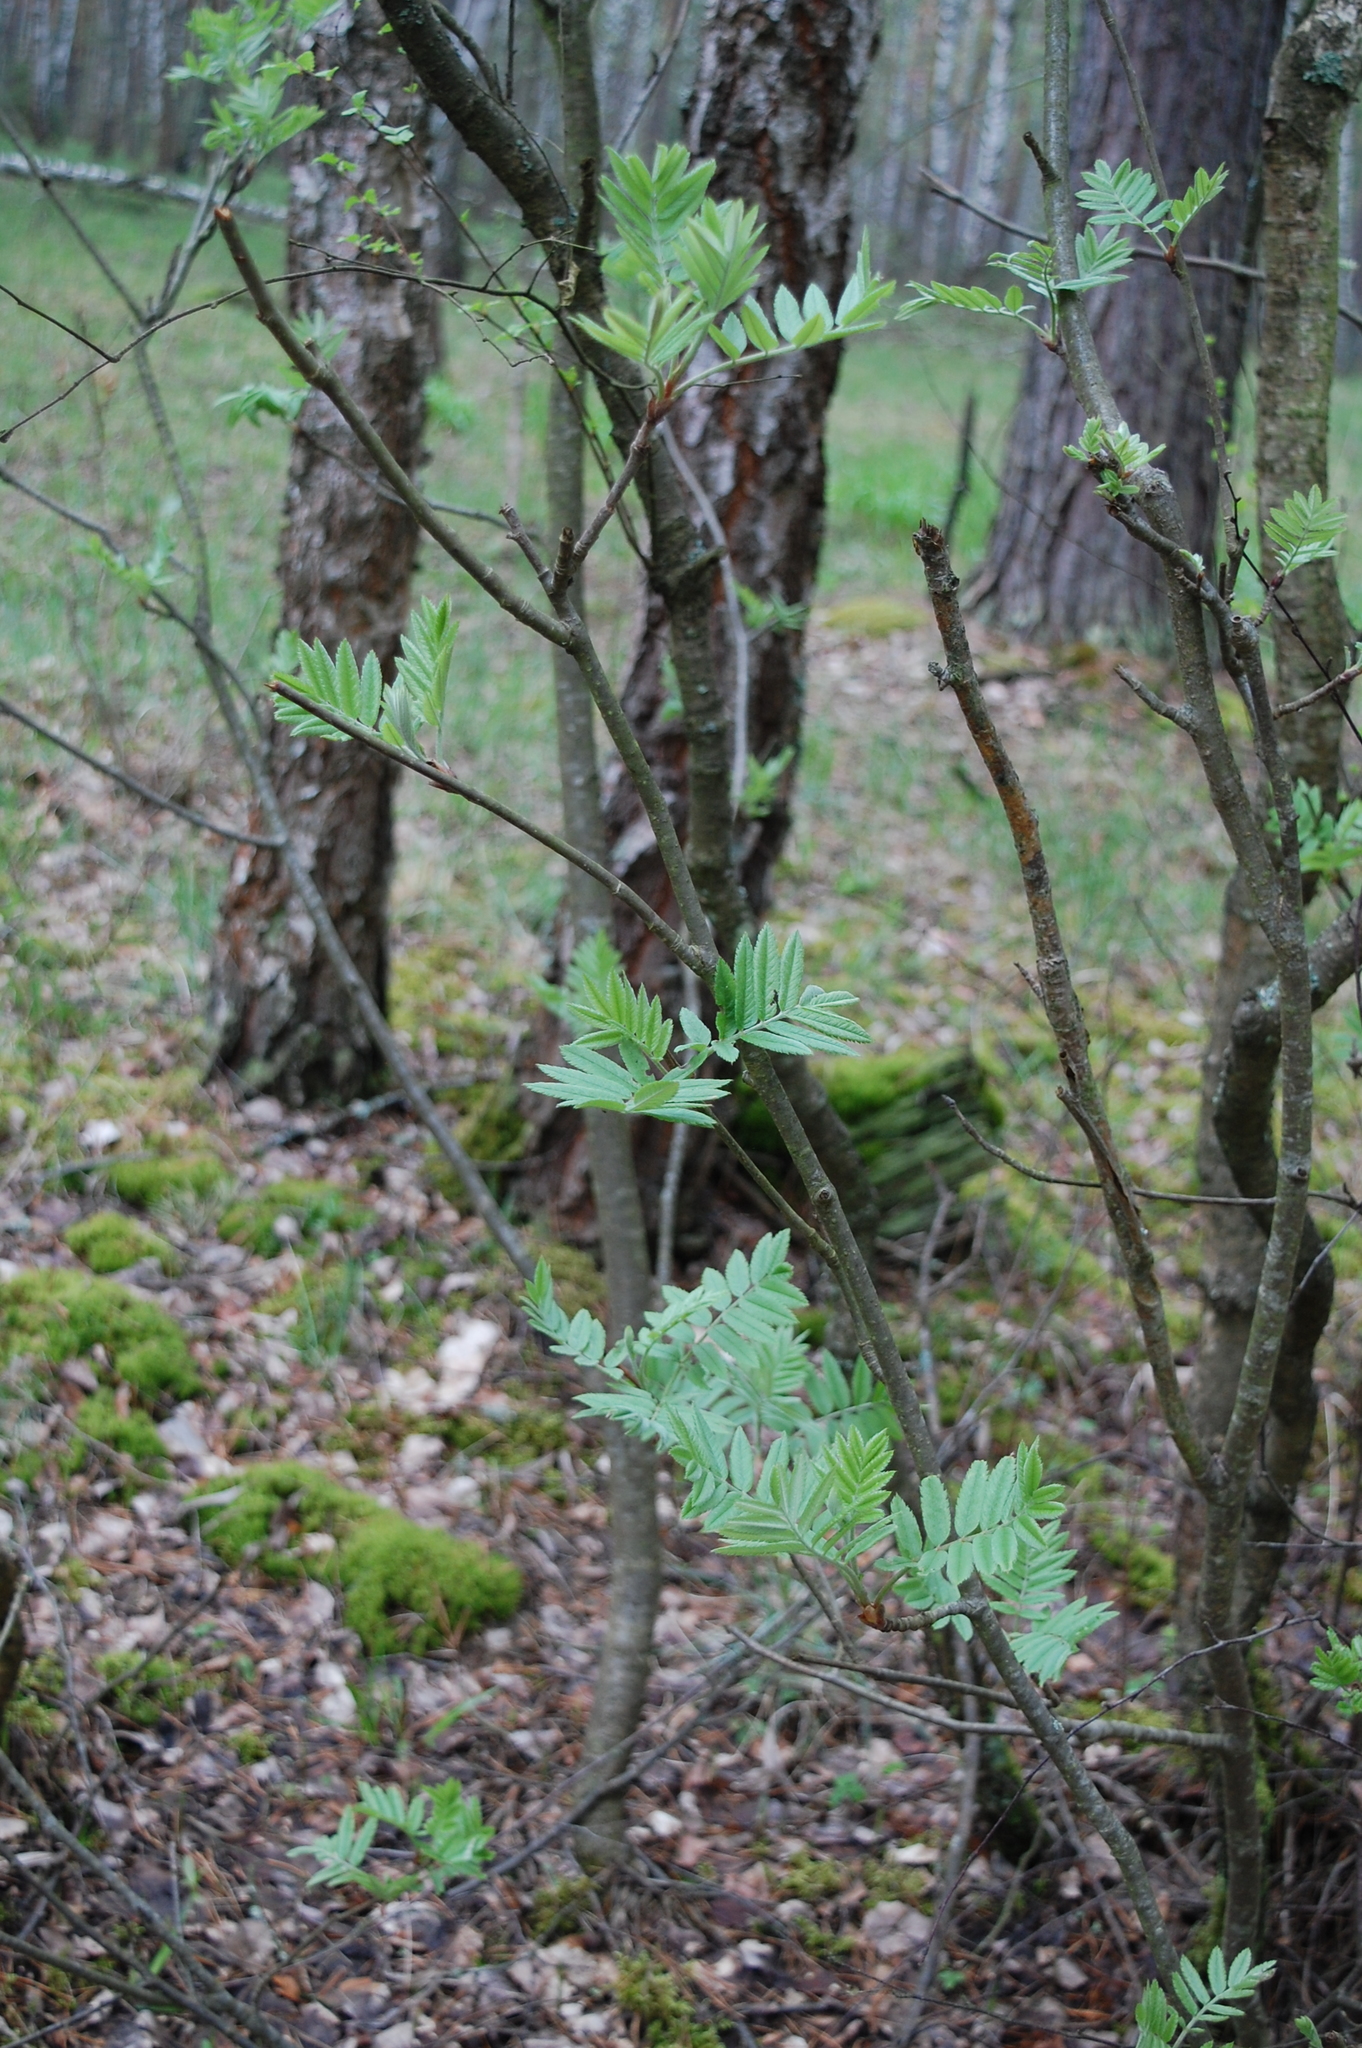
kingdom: Plantae
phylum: Tracheophyta
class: Magnoliopsida
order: Rosales
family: Rosaceae
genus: Sorbus
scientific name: Sorbus aucuparia
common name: Rowan
